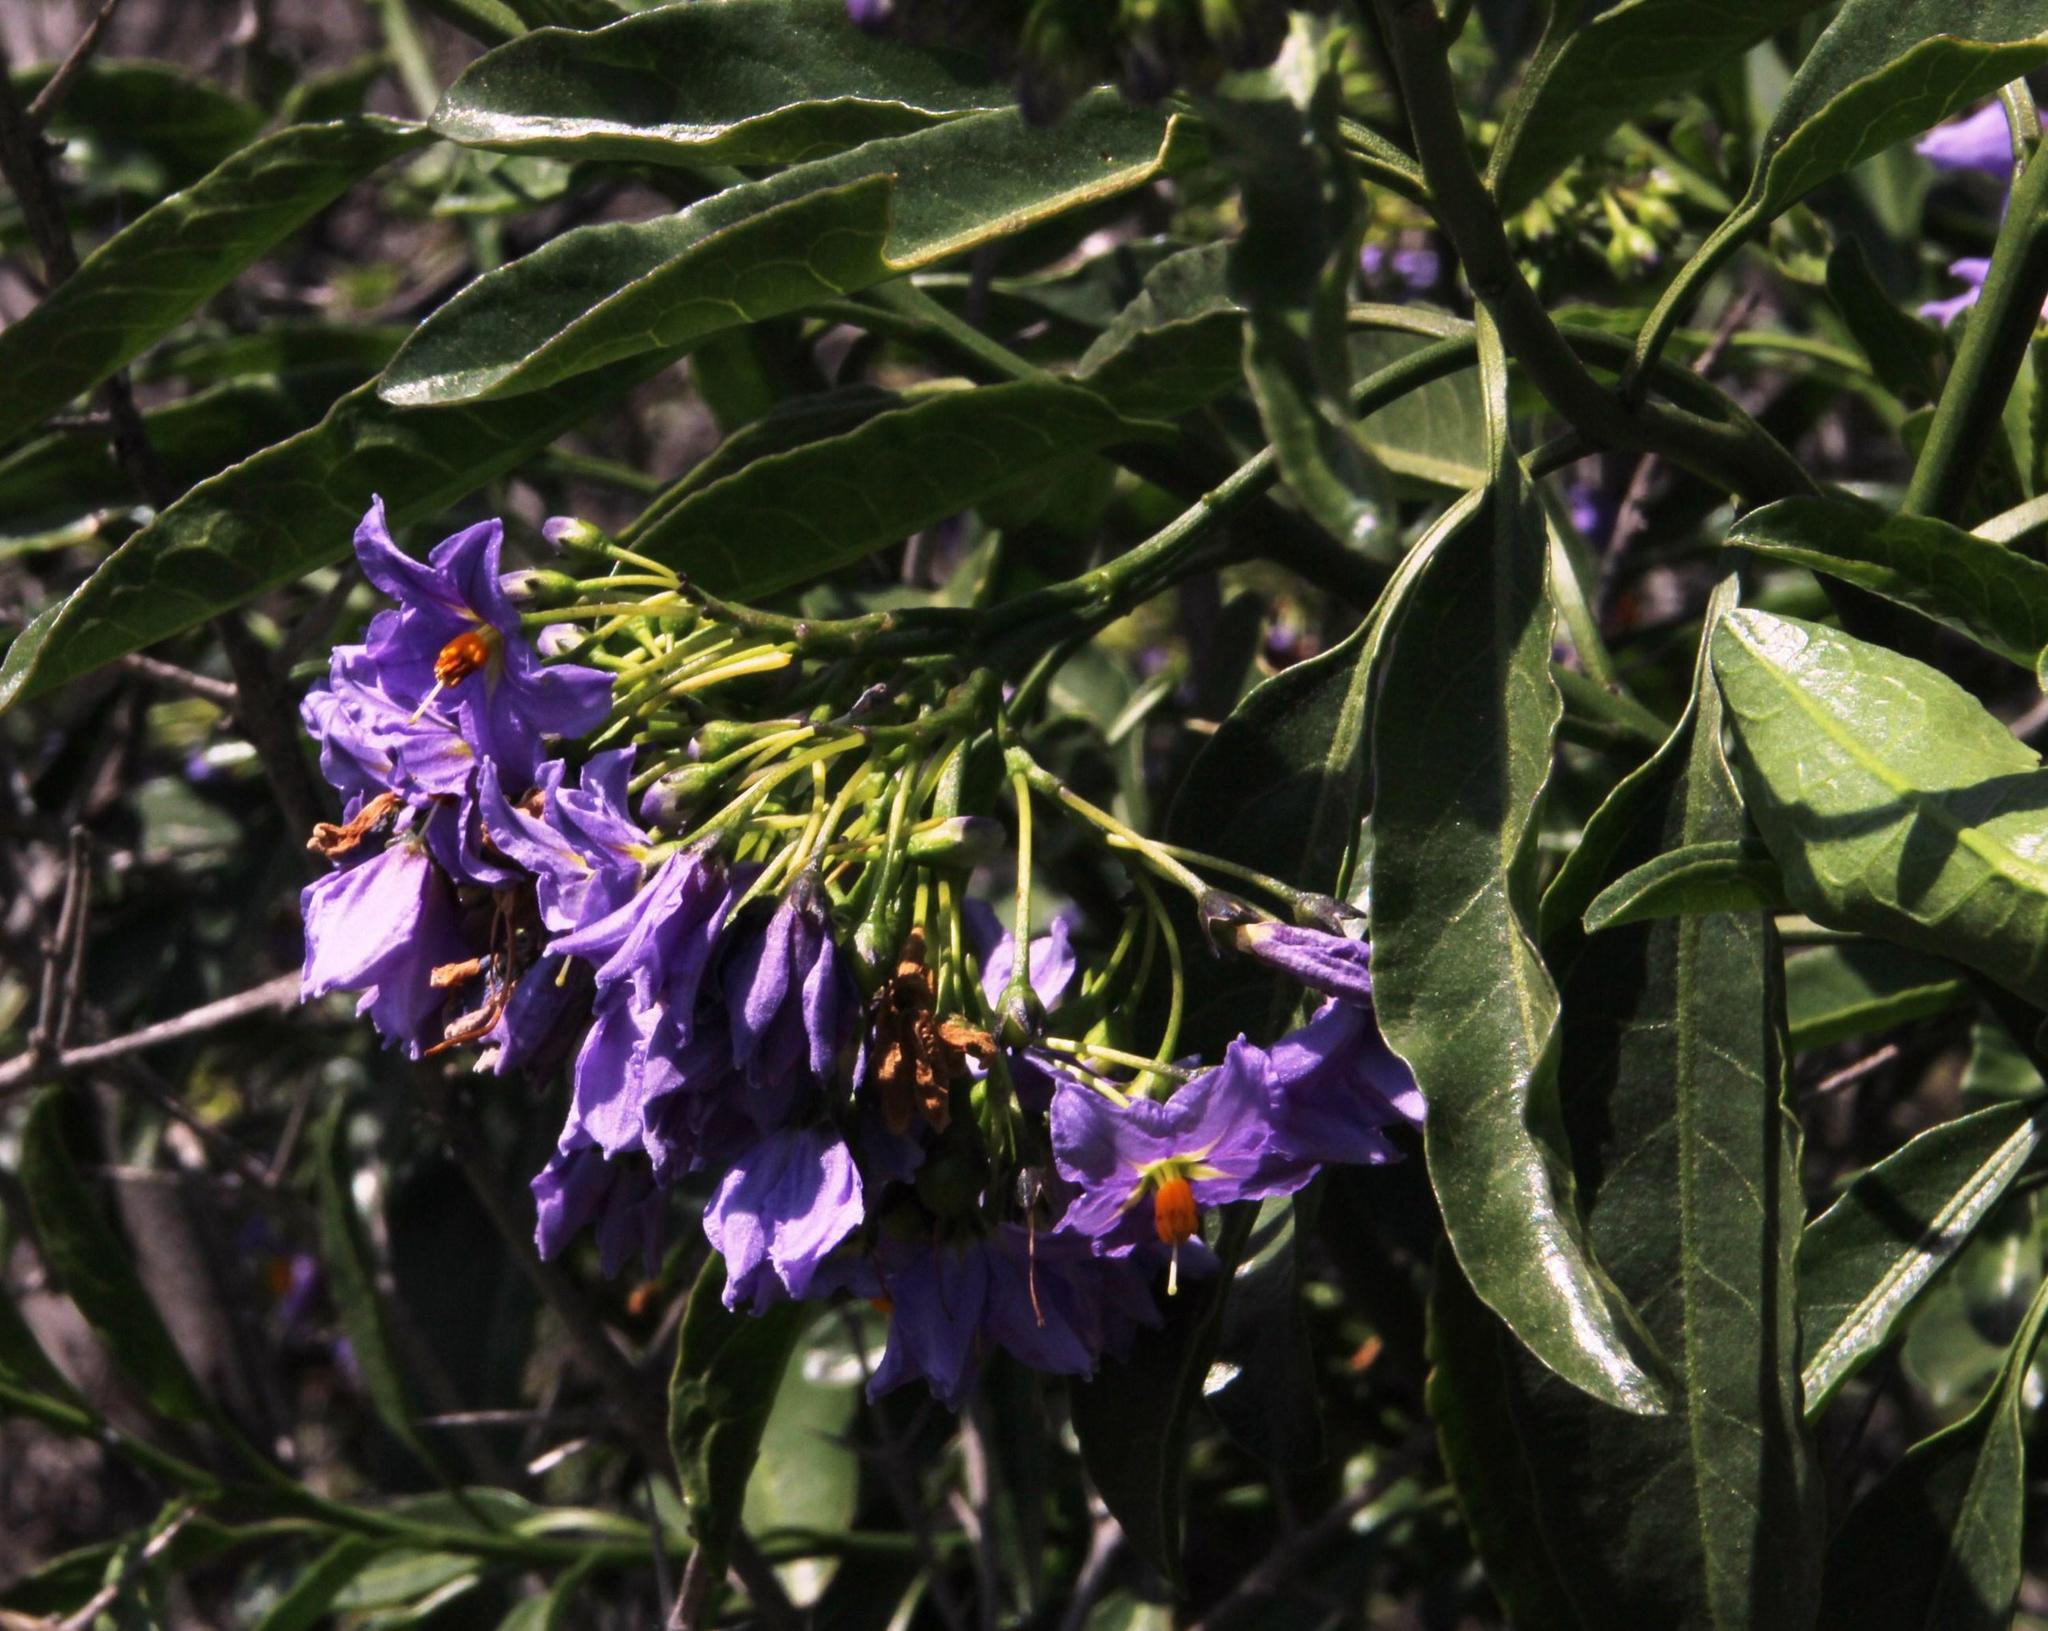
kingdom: Plantae
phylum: Tracheophyta
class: Magnoliopsida
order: Solanales
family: Solanaceae
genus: Solanum
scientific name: Solanum crispum
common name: Chilean nightshade
